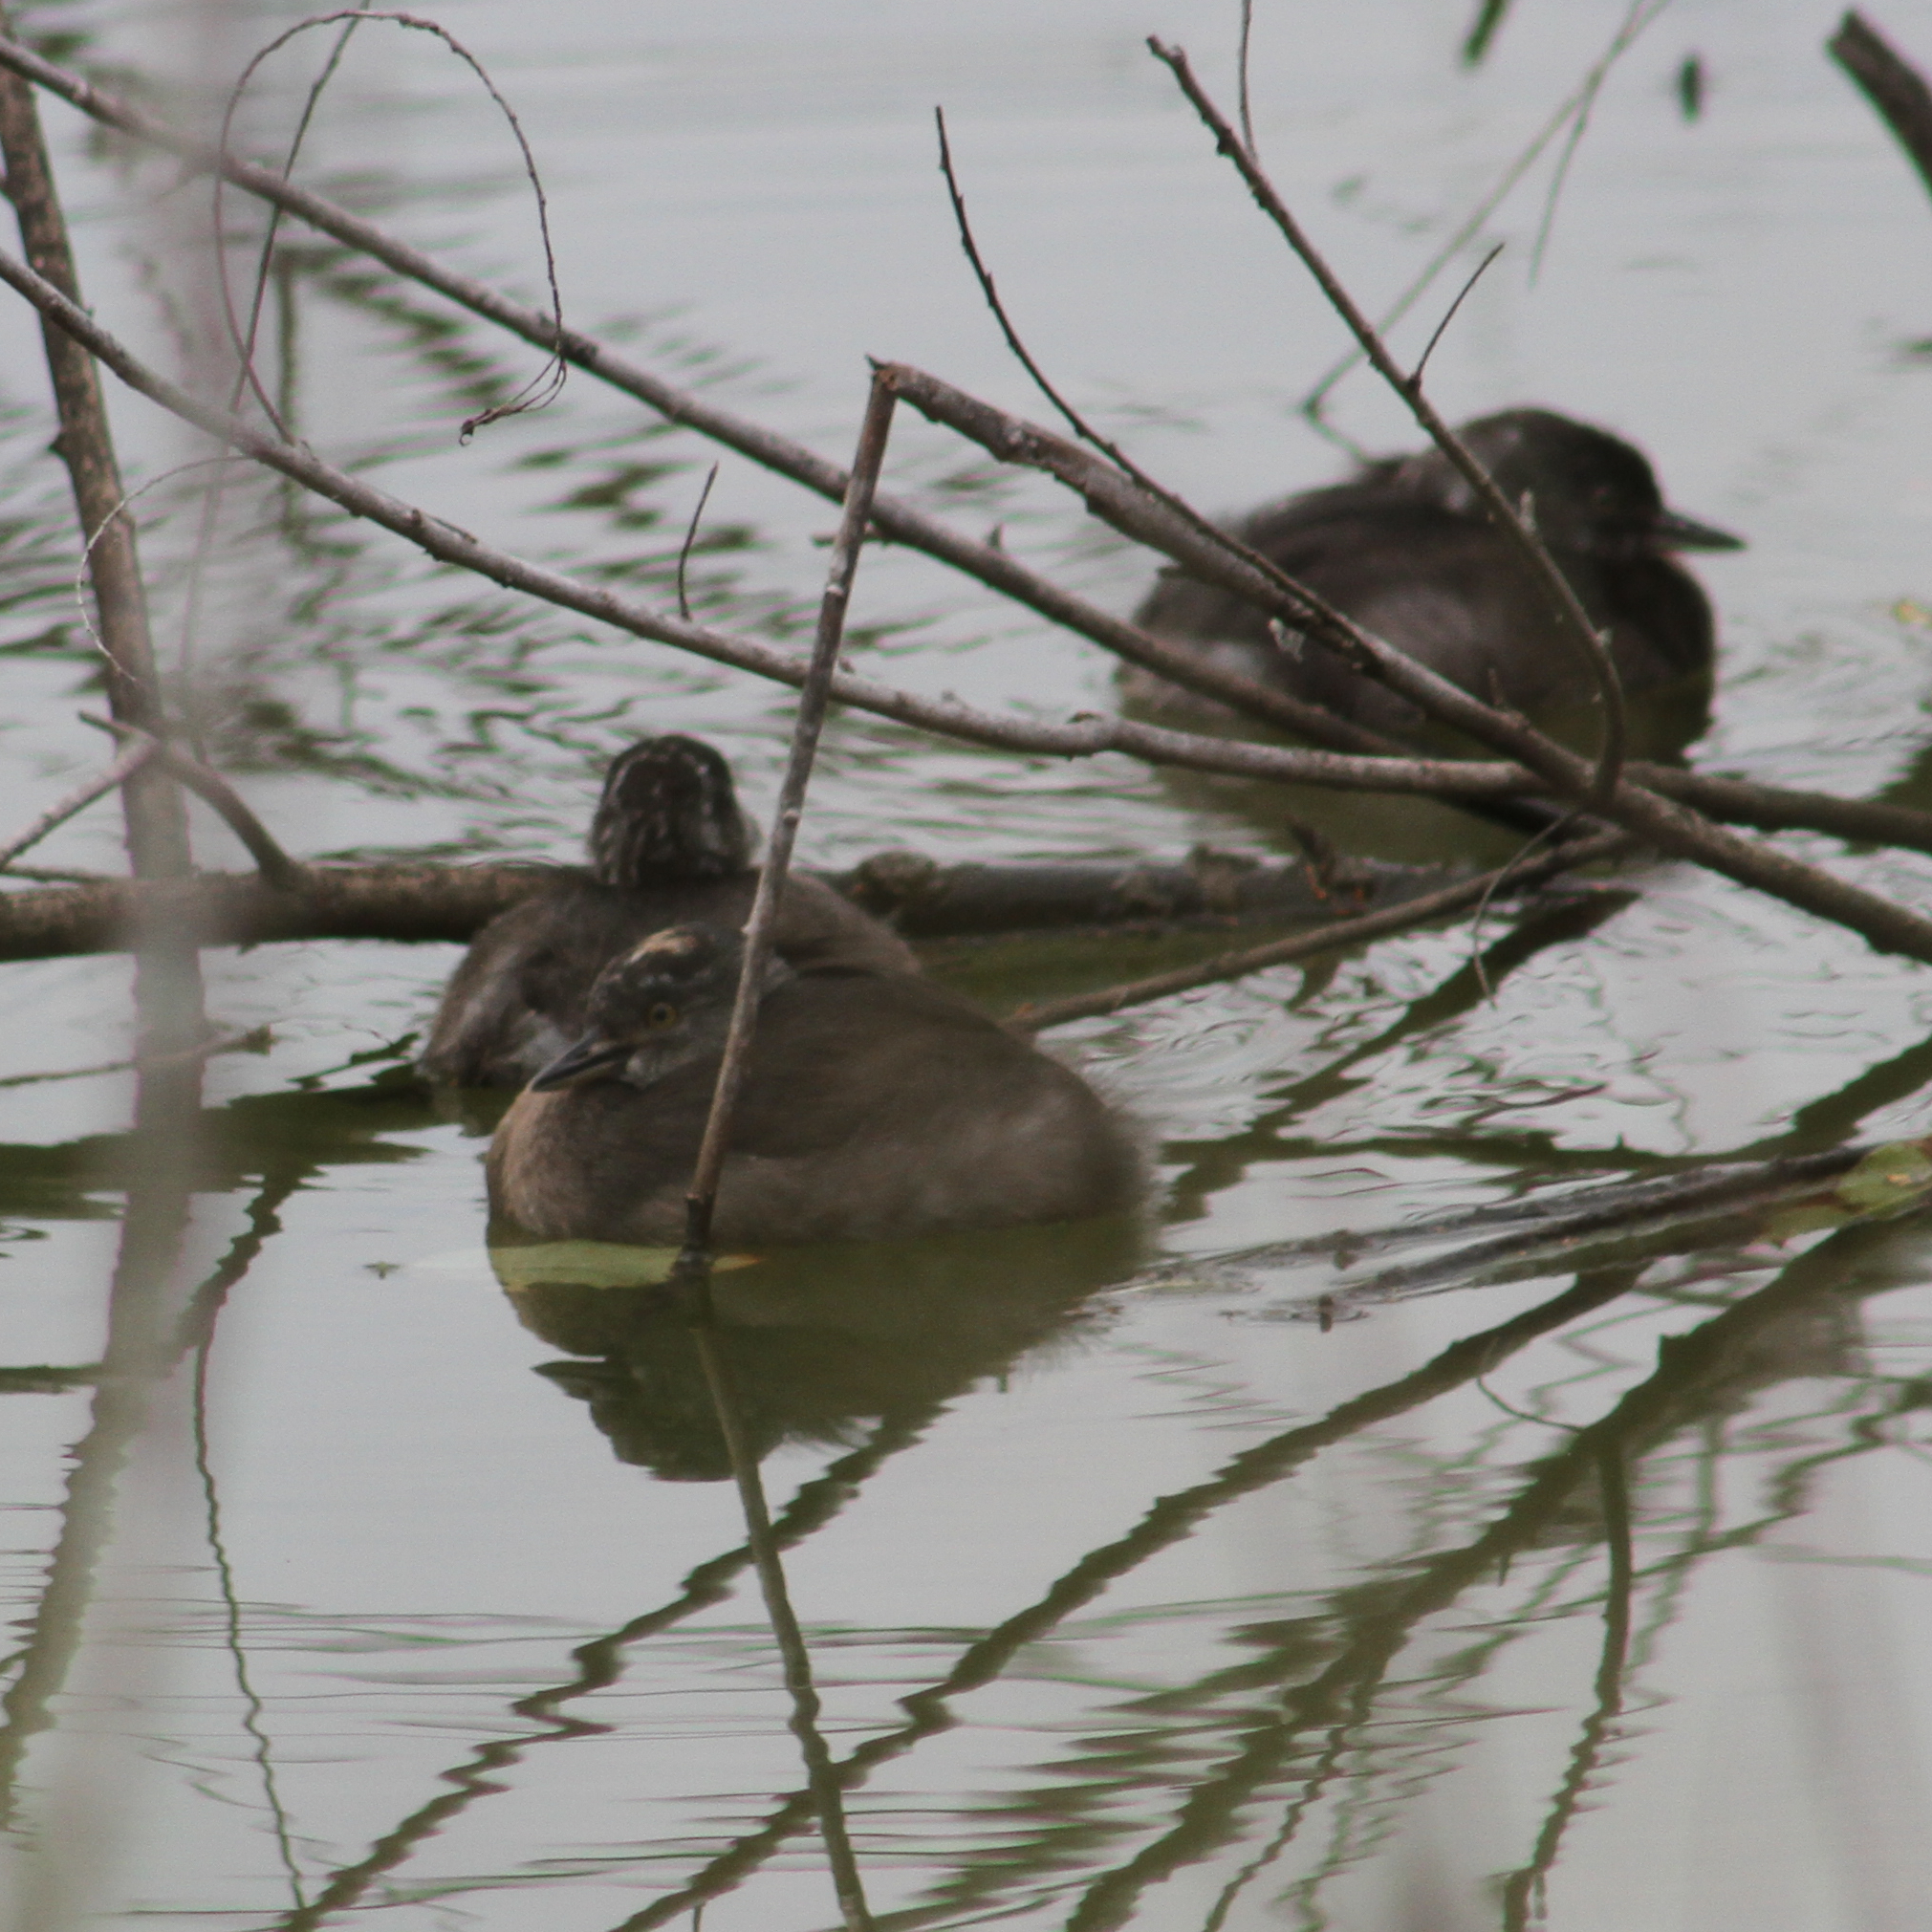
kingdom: Animalia
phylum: Chordata
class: Aves
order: Podicipediformes
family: Podicipedidae
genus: Tachybaptus
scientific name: Tachybaptus dominicus
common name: Least grebe
